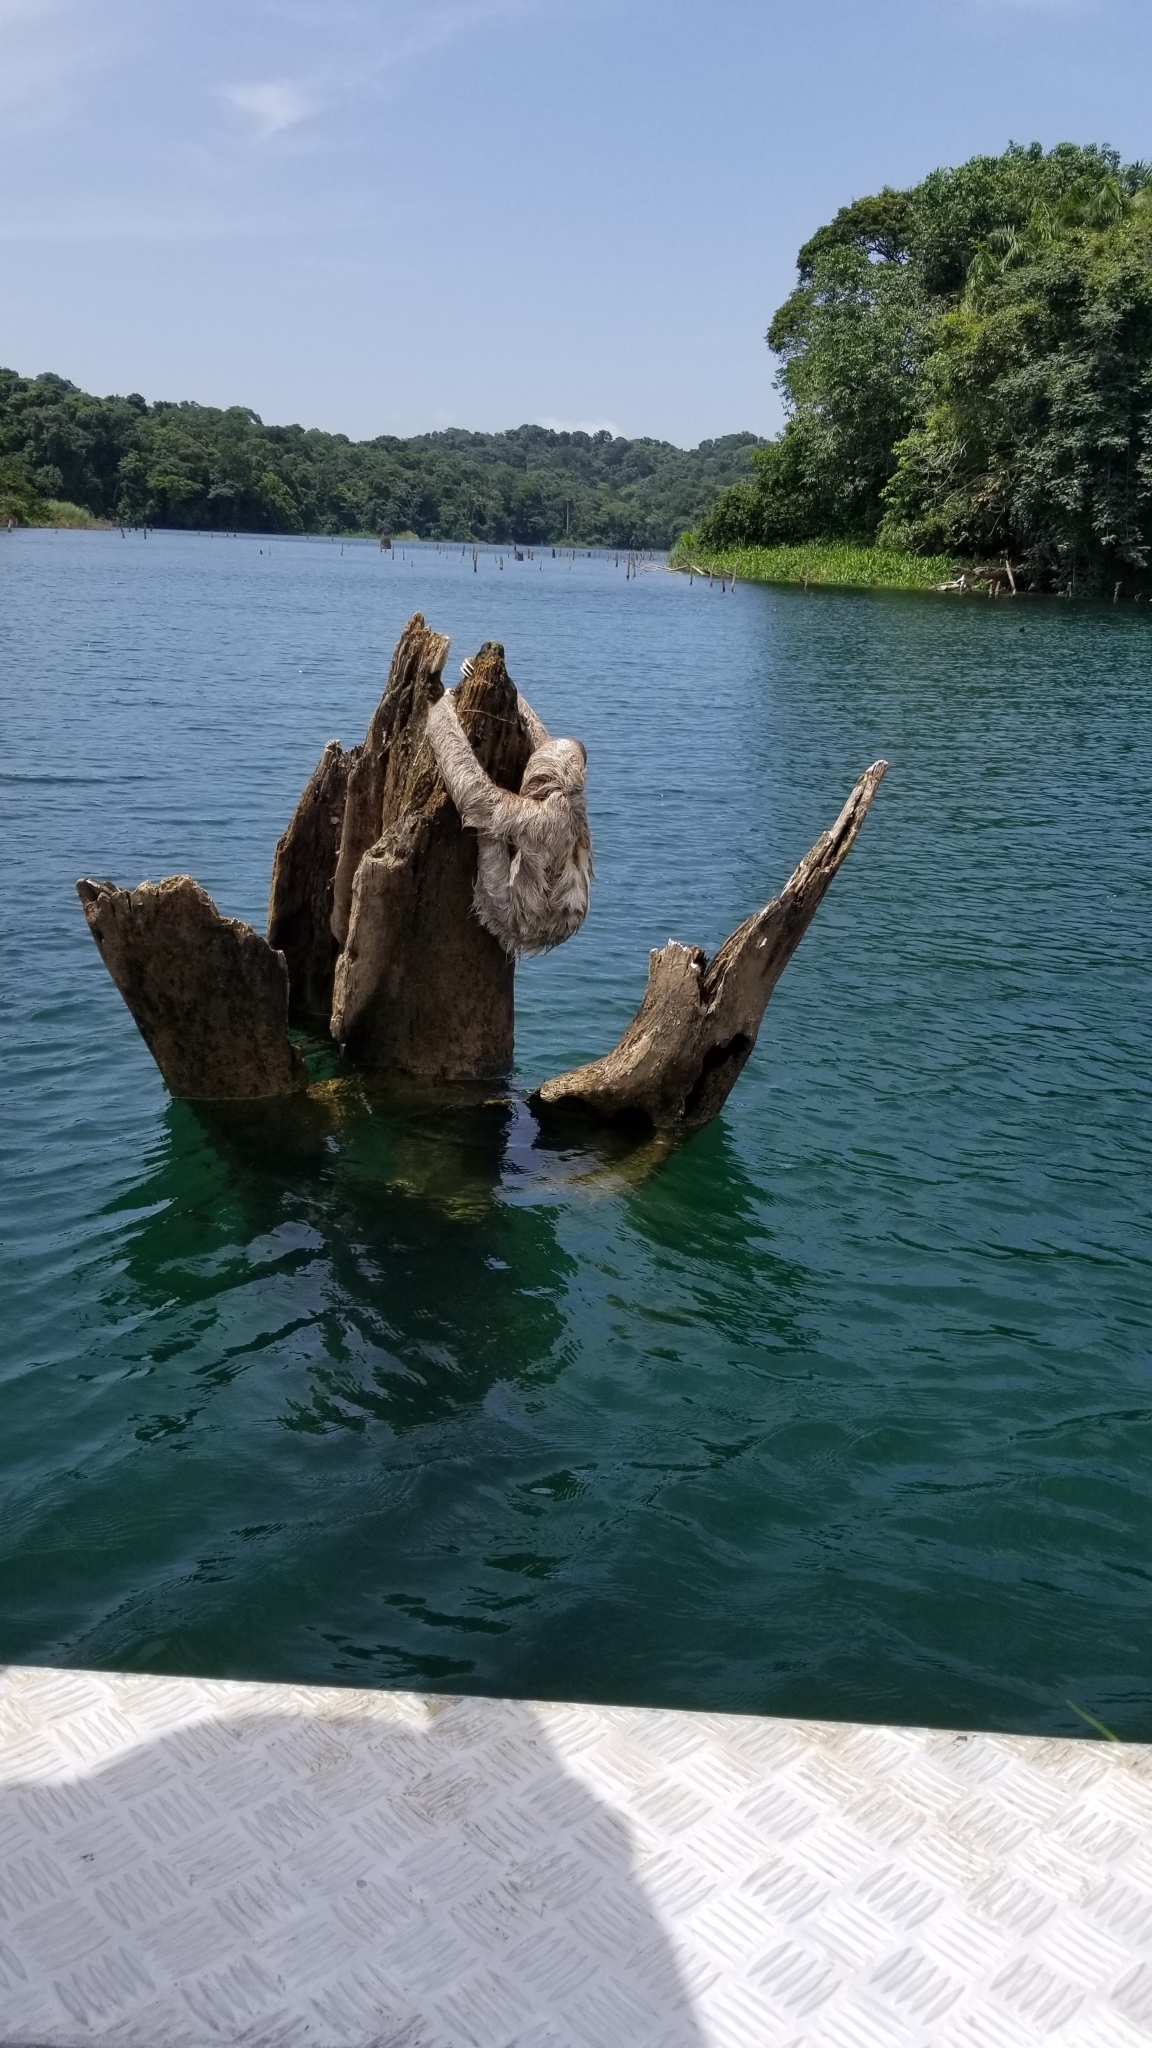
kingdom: Animalia
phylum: Chordata
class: Mammalia
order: Pilosa
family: Bradypodidae
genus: Bradypus
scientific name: Bradypus variegatus
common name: Brown-throated three-toed sloth
